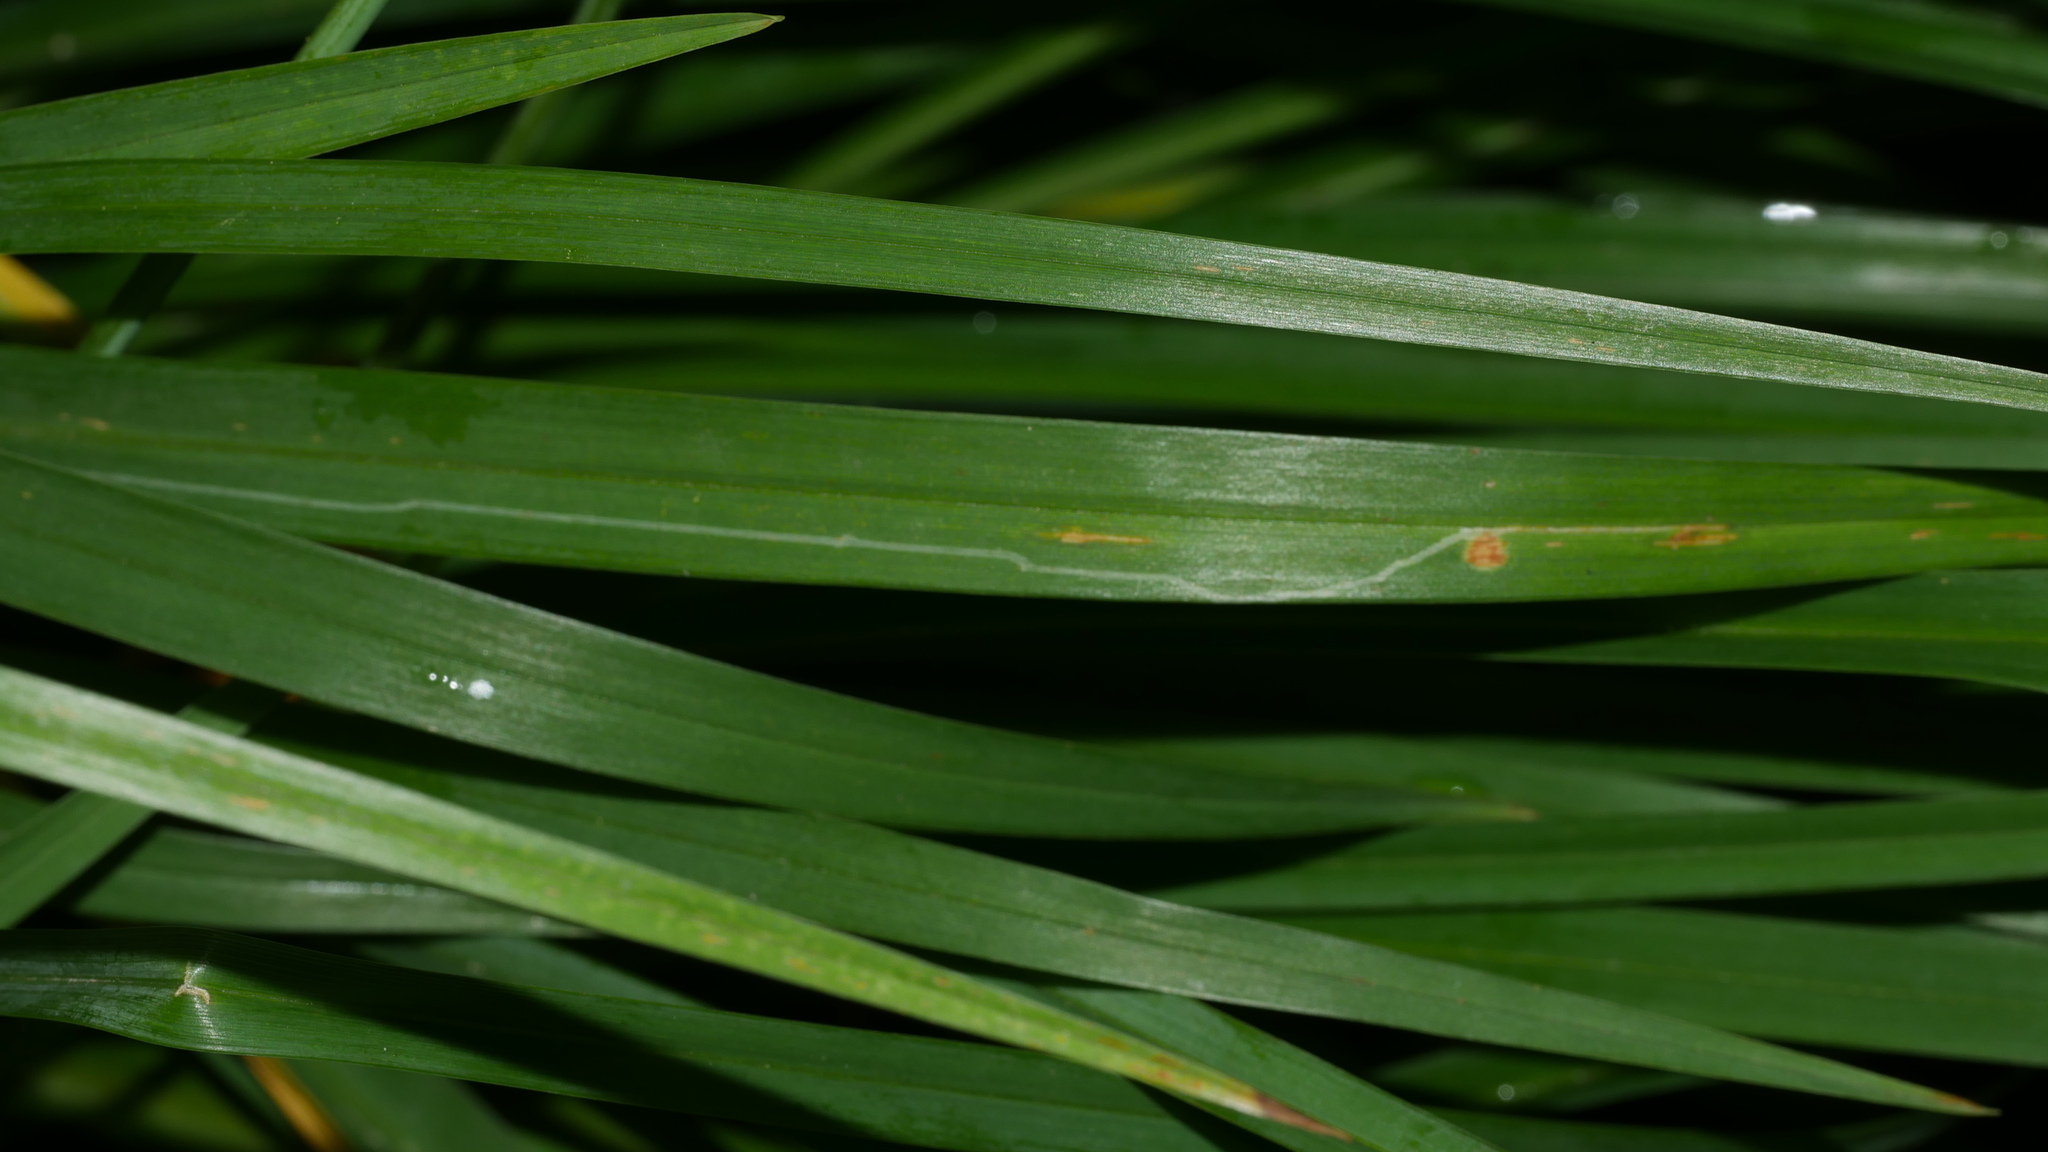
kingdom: Animalia
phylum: Arthropoda
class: Insecta
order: Diptera
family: Agromyzidae
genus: Ophiomyia
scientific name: Ophiomyia kwansonis
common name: Daylily leafminer
